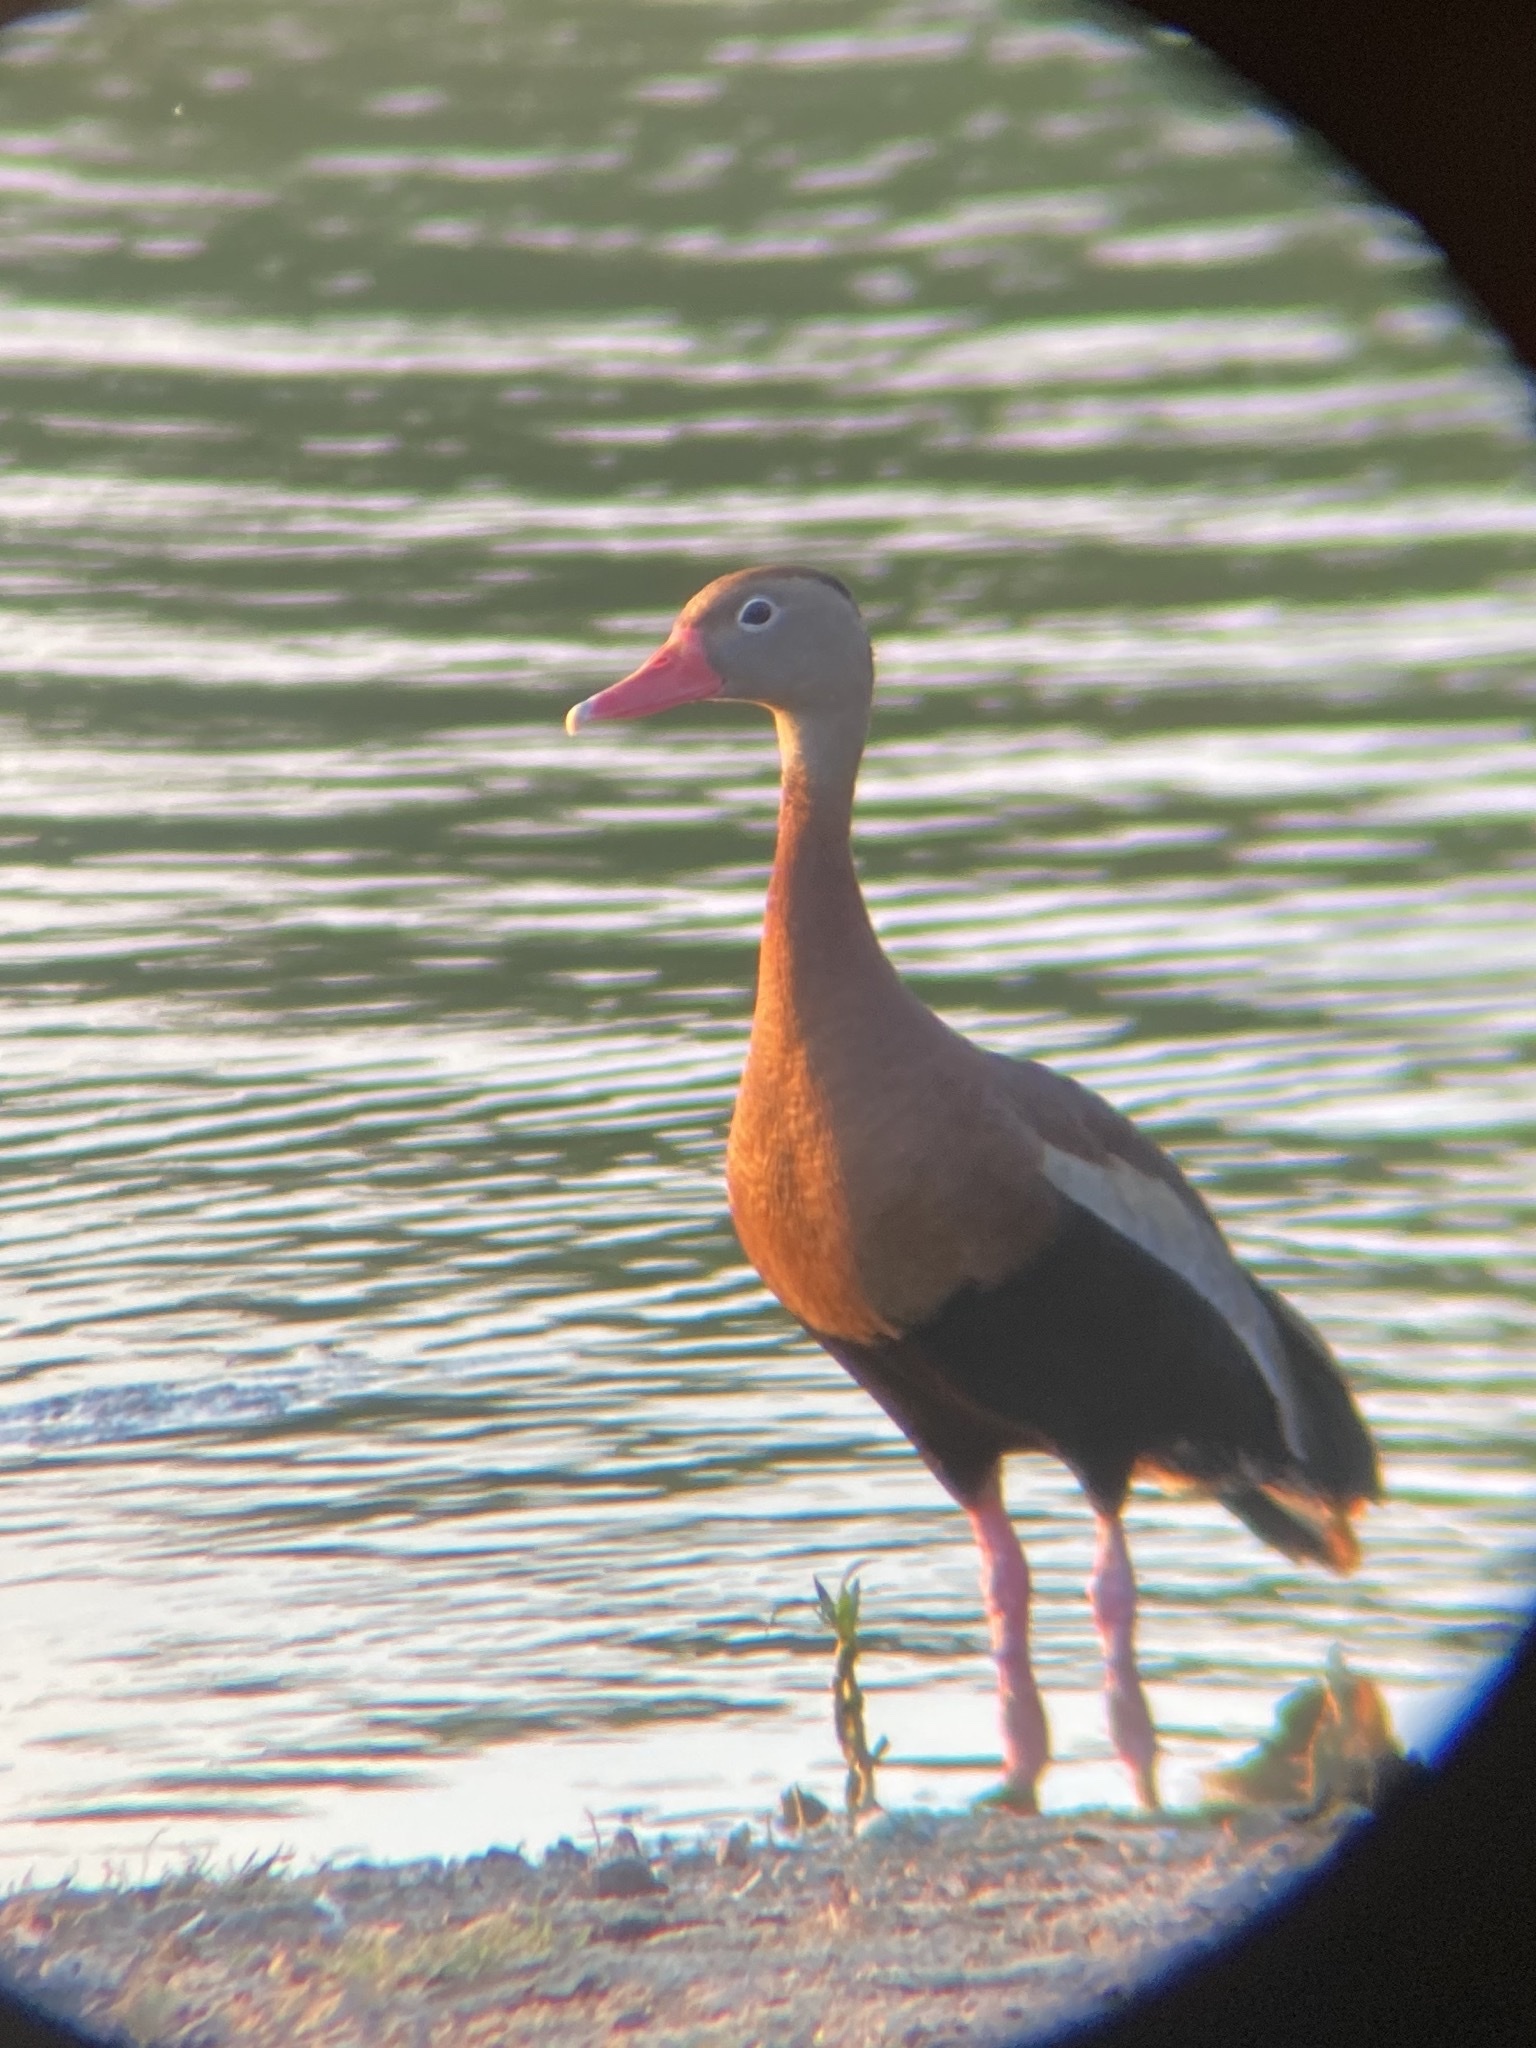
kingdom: Animalia
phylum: Chordata
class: Aves
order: Anseriformes
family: Anatidae
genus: Dendrocygna
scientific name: Dendrocygna autumnalis
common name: Black-bellied whistling duck
